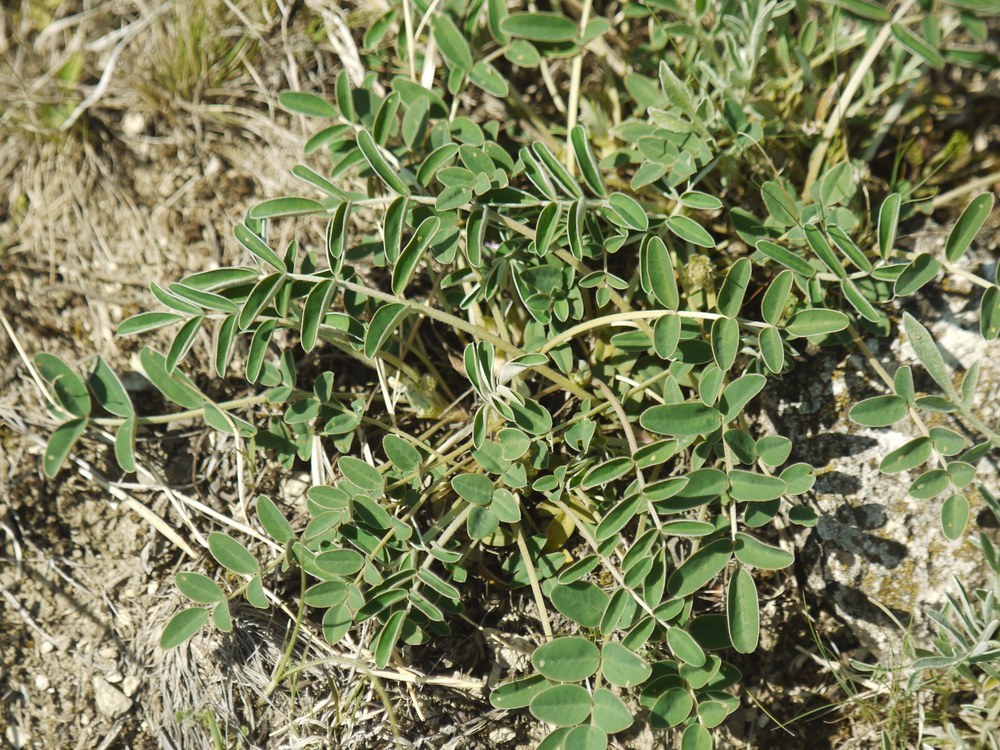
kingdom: Plantae
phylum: Tracheophyta
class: Magnoliopsida
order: Fabales
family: Fabaceae
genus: Hedysarum
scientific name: Hedysarum grandiflorum
